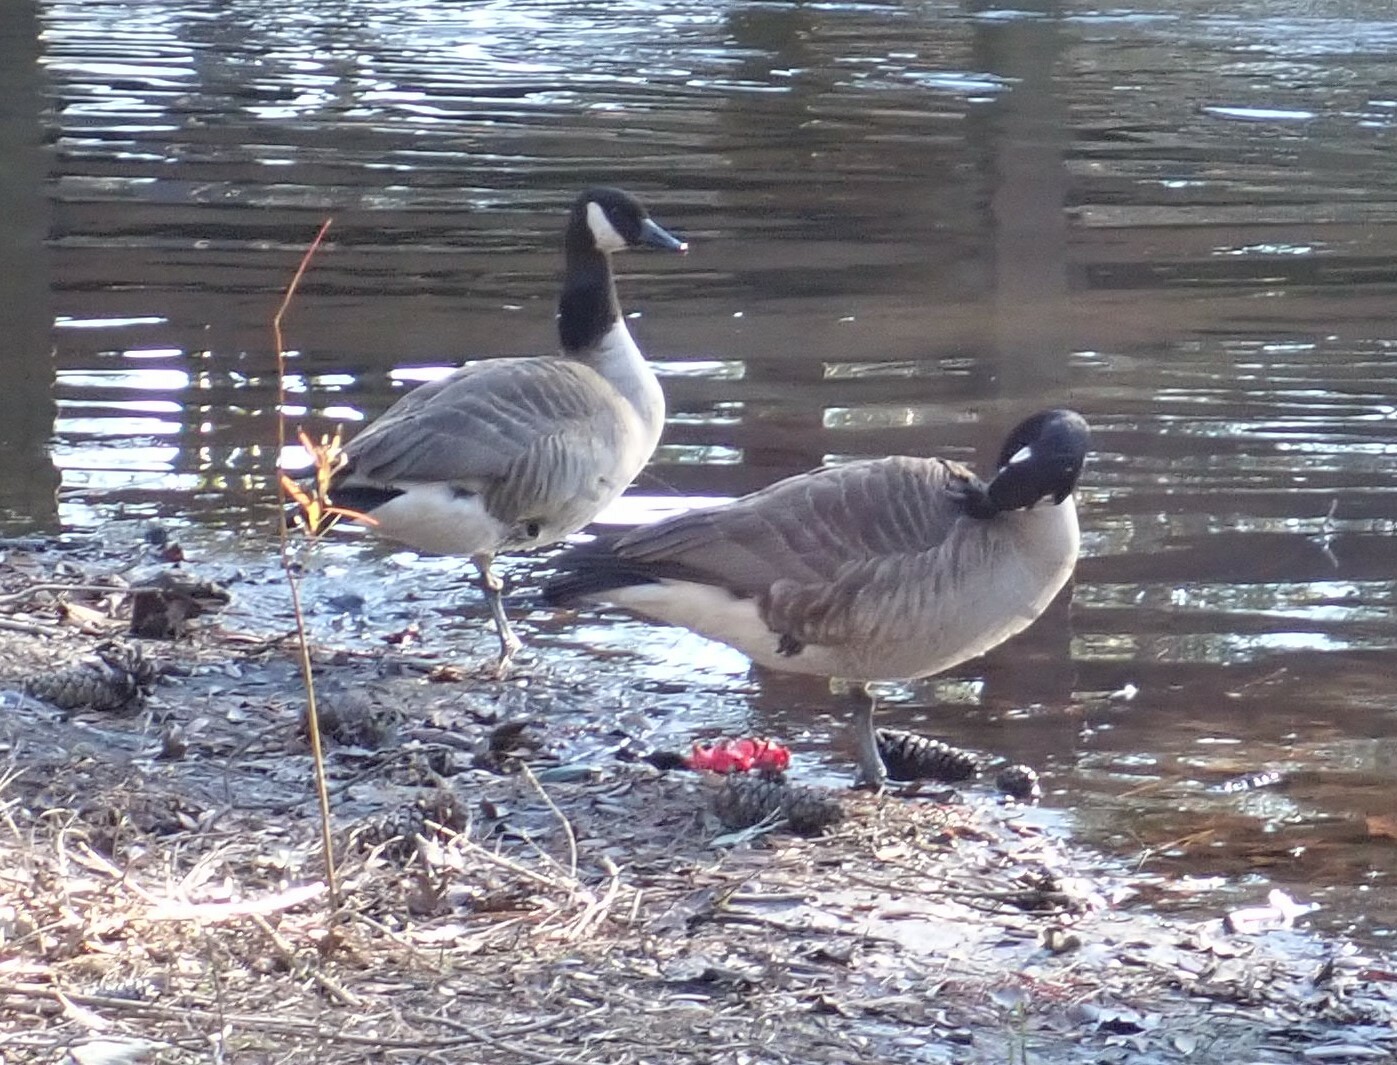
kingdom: Animalia
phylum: Chordata
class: Aves
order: Anseriformes
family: Anatidae
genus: Branta
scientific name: Branta canadensis
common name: Canada goose
